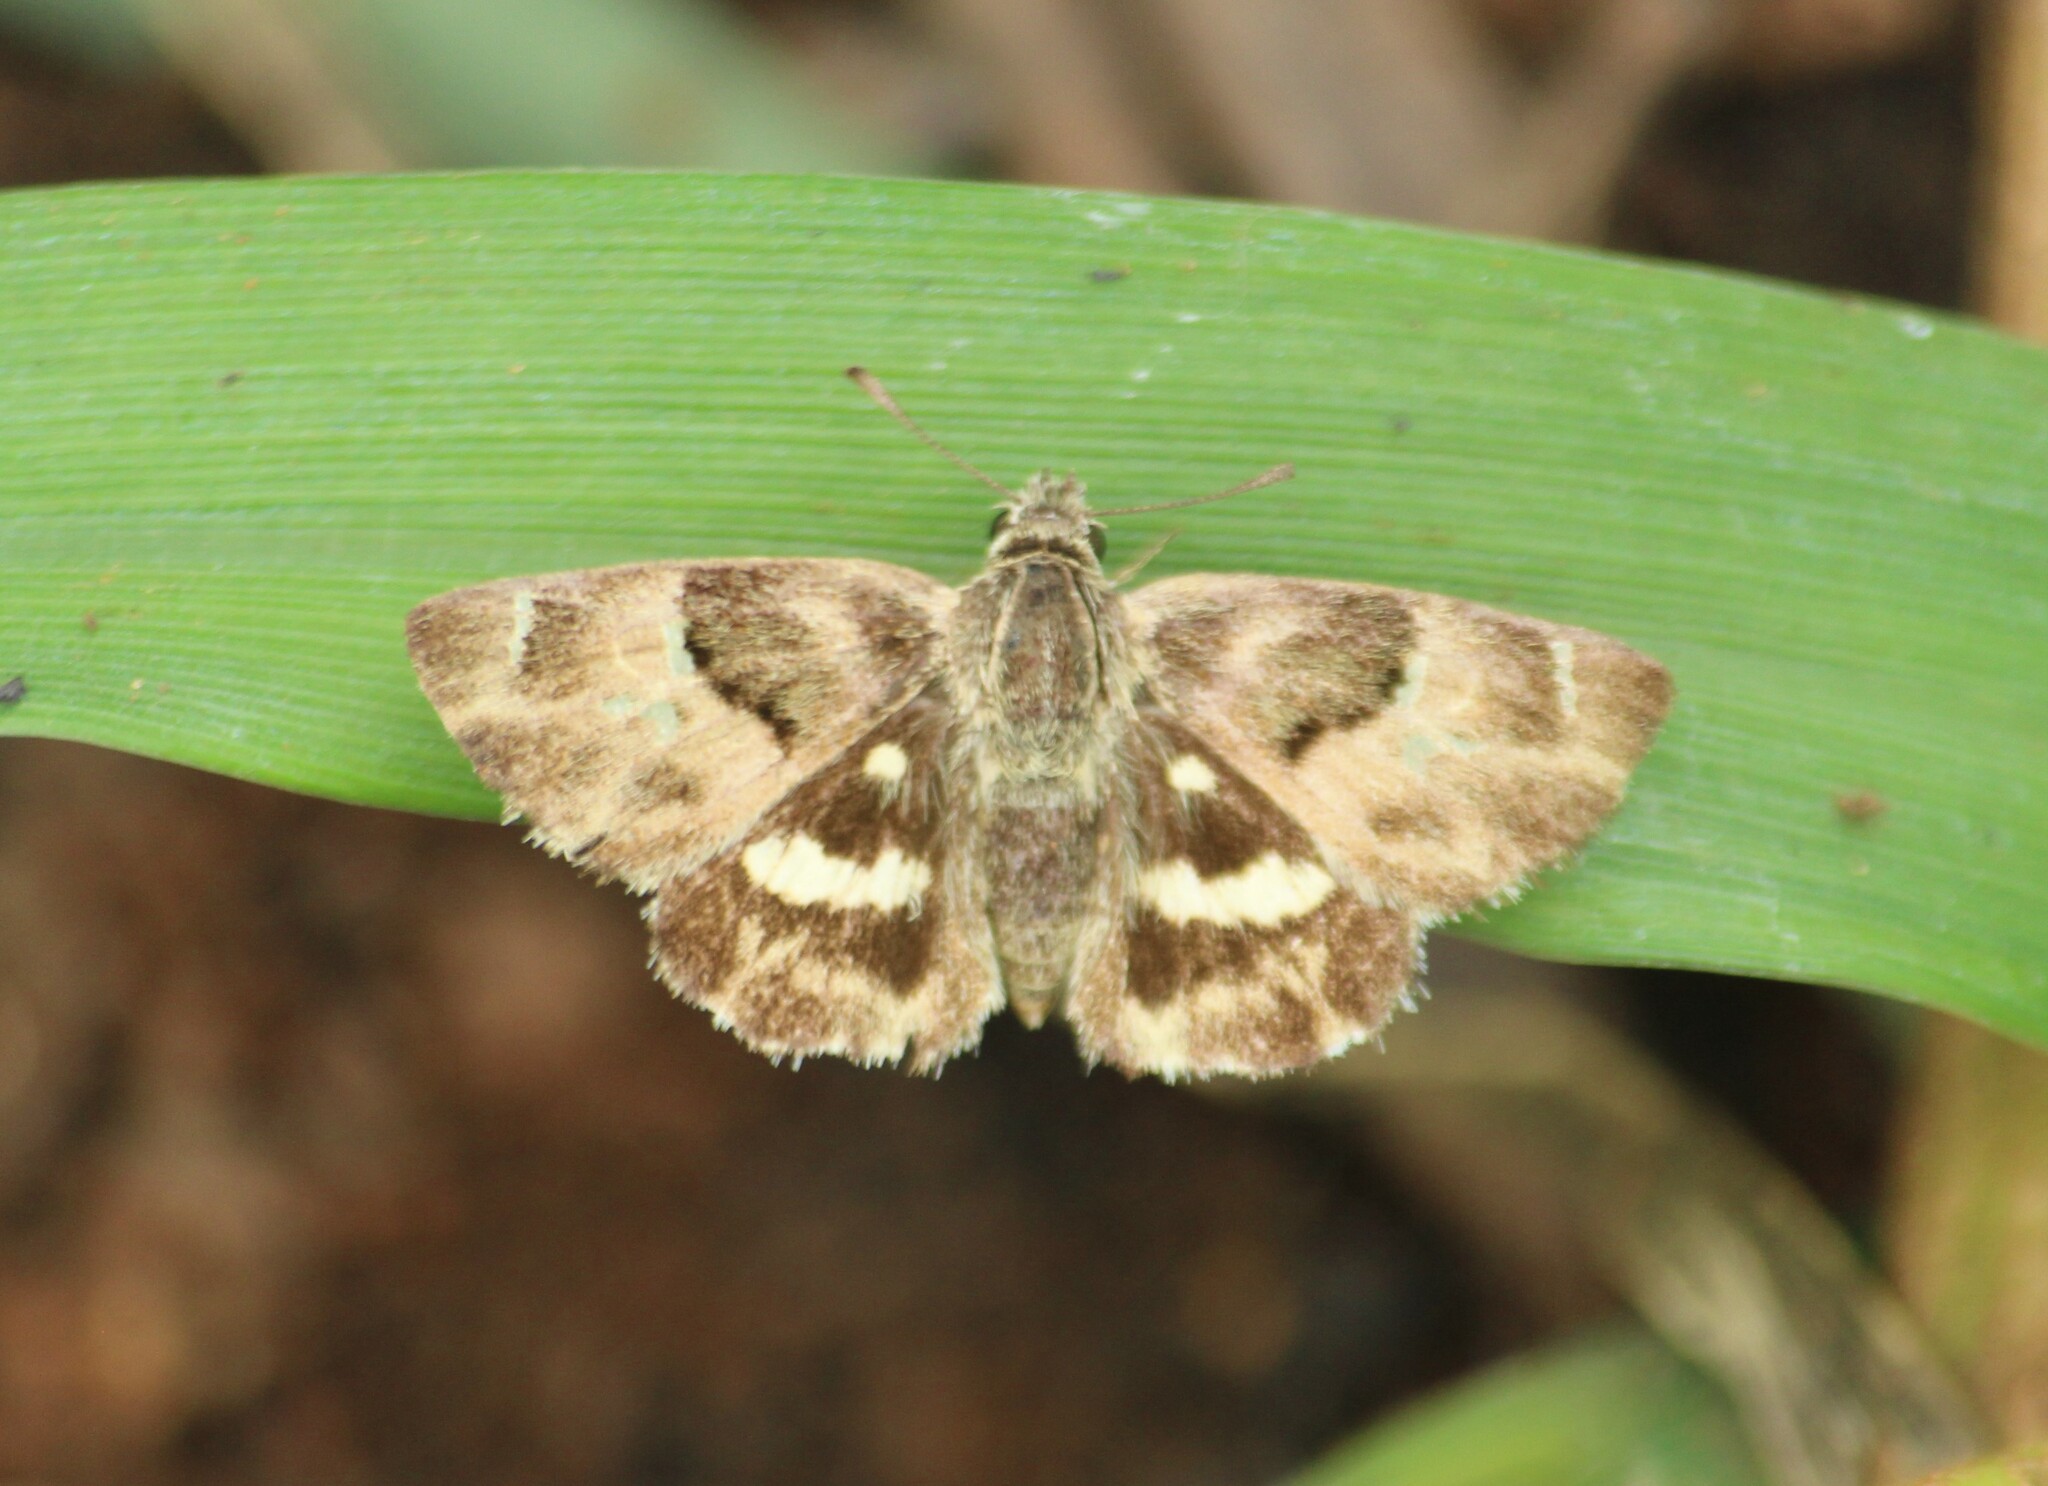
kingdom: Animalia
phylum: Arthropoda
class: Insecta
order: Lepidoptera
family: Hesperiidae
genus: Gomalia
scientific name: Gomalia elma
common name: Green-marbled skipper
